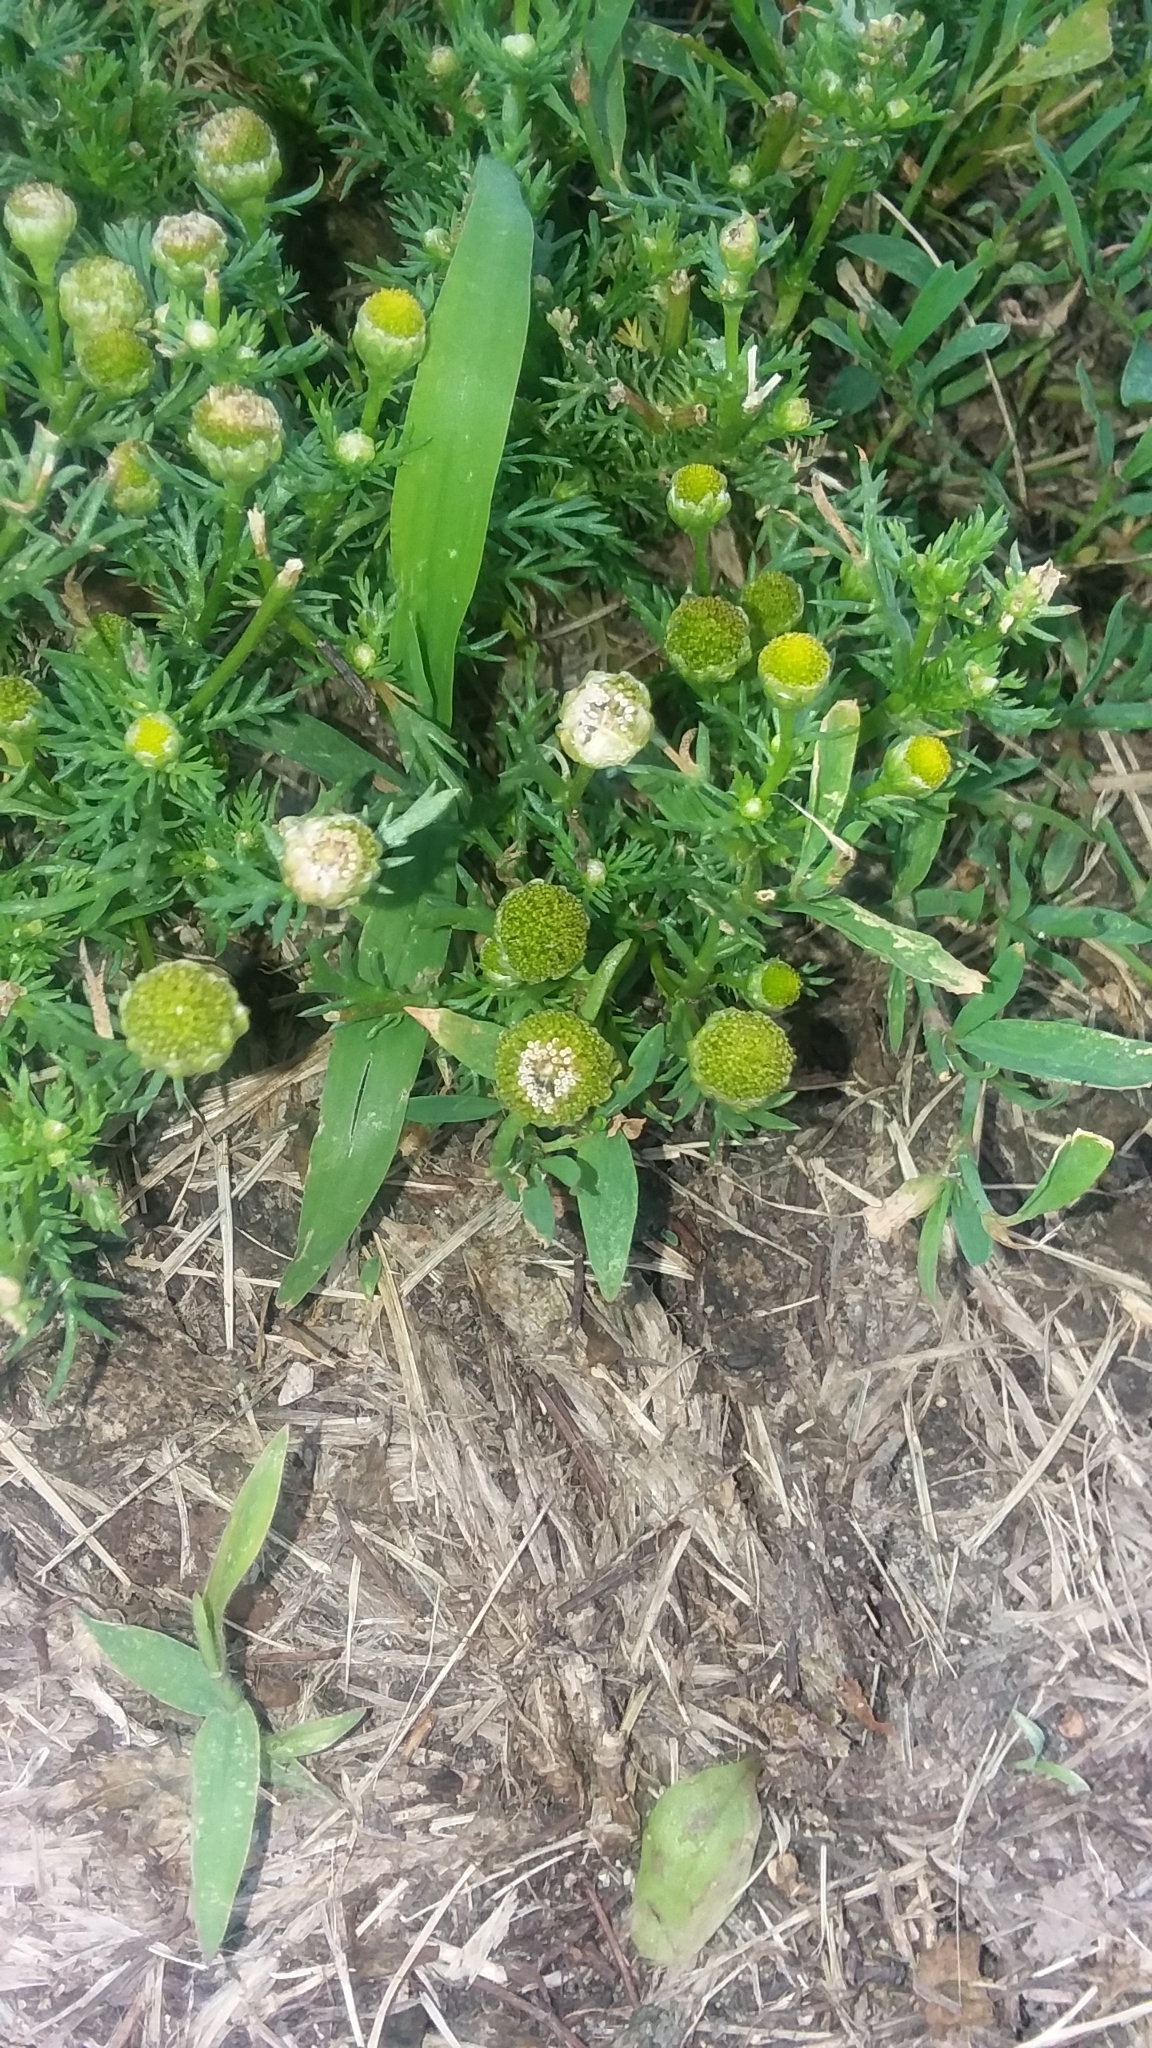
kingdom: Plantae
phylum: Tracheophyta
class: Magnoliopsida
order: Asterales
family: Asteraceae
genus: Matricaria
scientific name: Matricaria discoidea
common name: Disc mayweed
